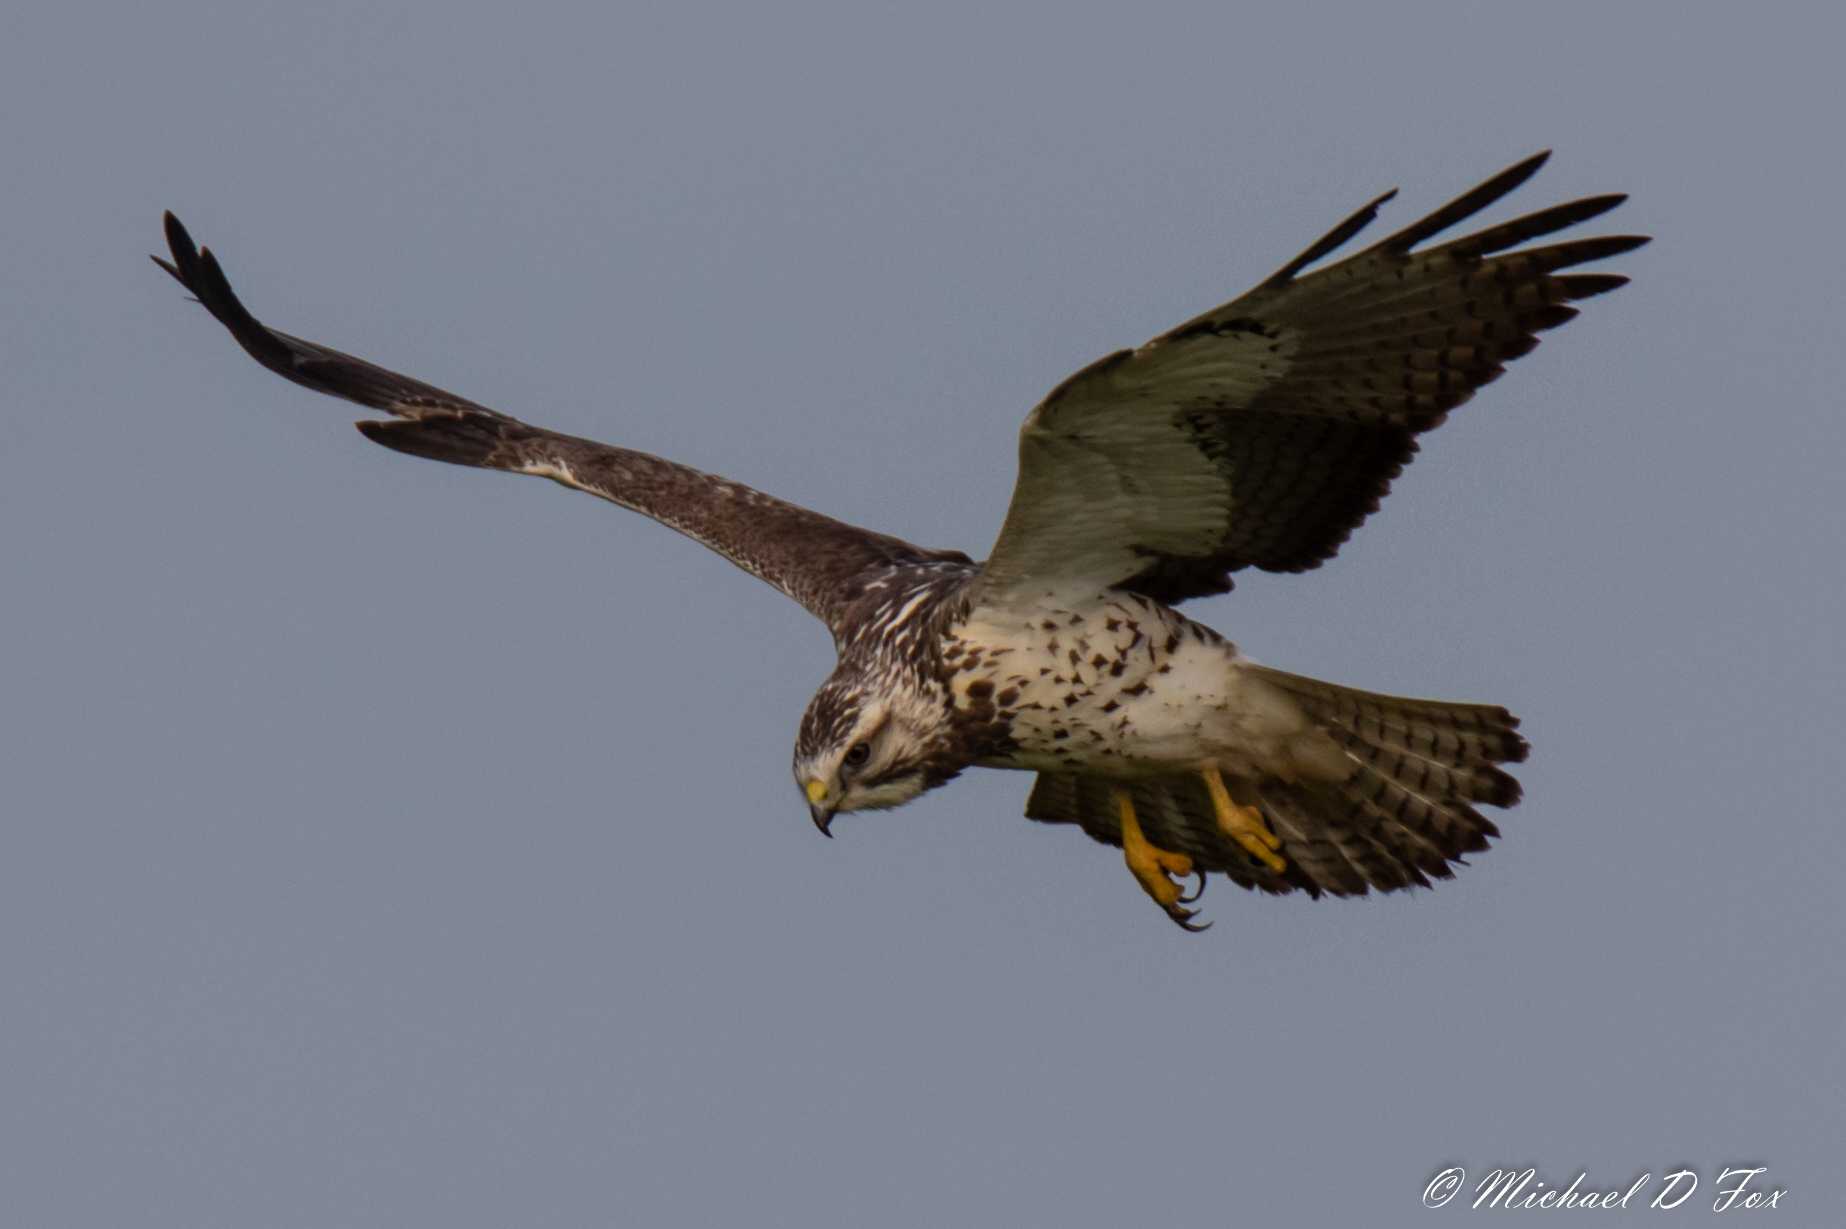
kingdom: Animalia
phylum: Chordata
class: Aves
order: Accipitriformes
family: Accipitridae
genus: Buteo
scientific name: Buteo swainsoni
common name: Swainson's hawk
